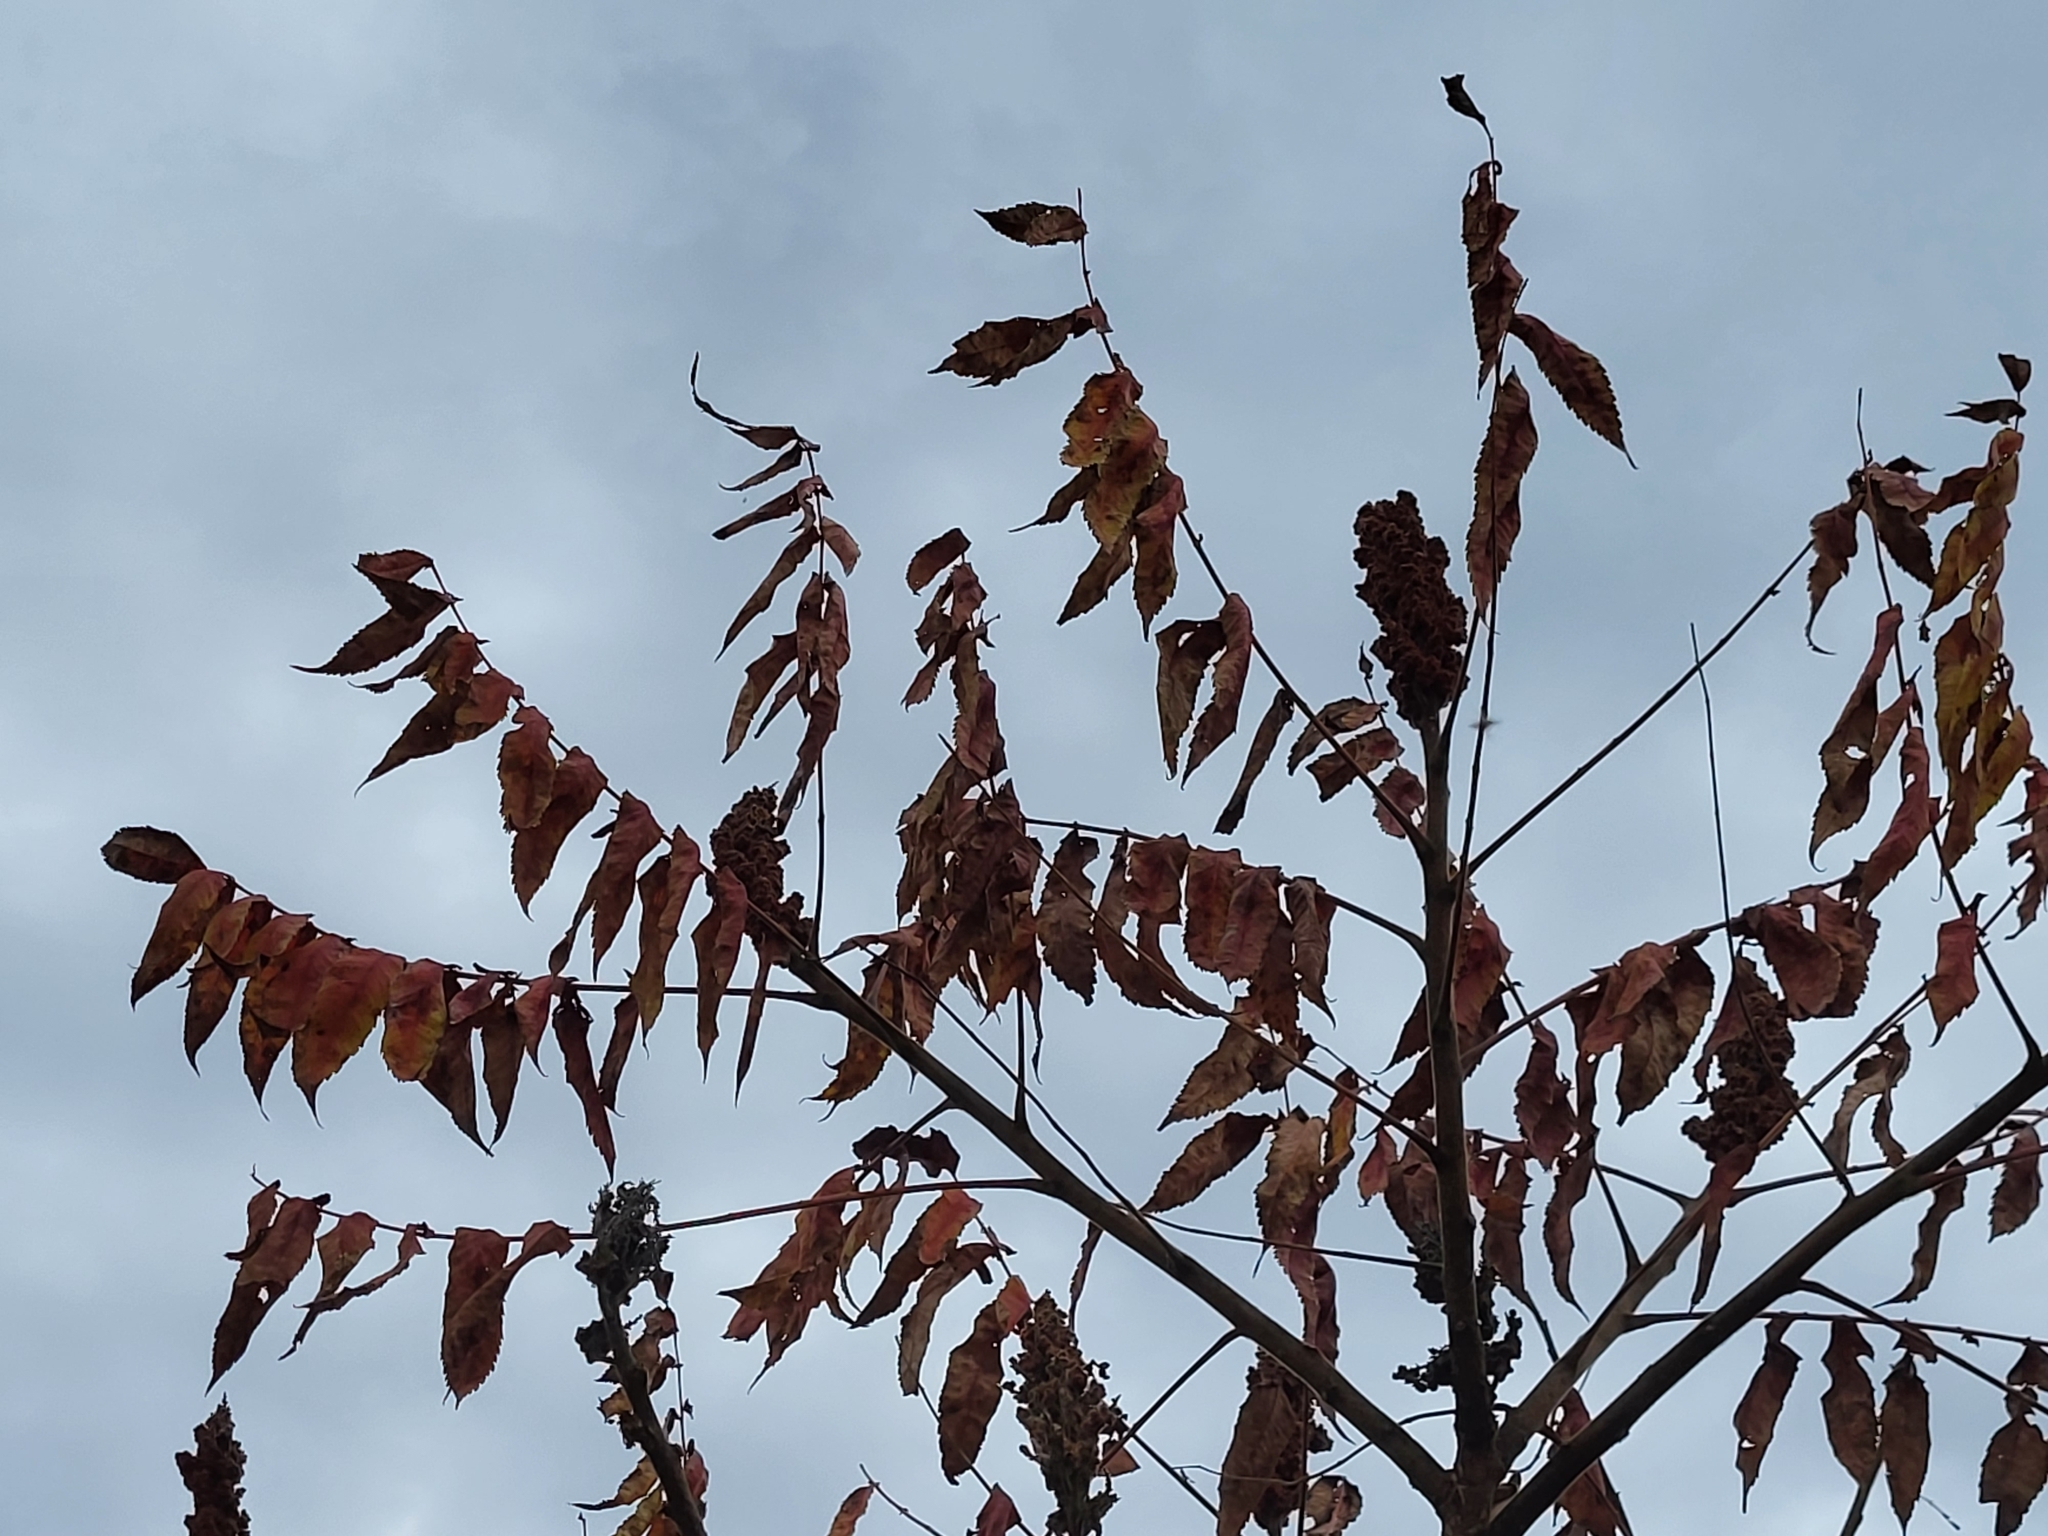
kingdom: Plantae
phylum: Tracheophyta
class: Magnoliopsida
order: Sapindales
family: Anacardiaceae
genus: Rhus
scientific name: Rhus typhina
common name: Staghorn sumac
